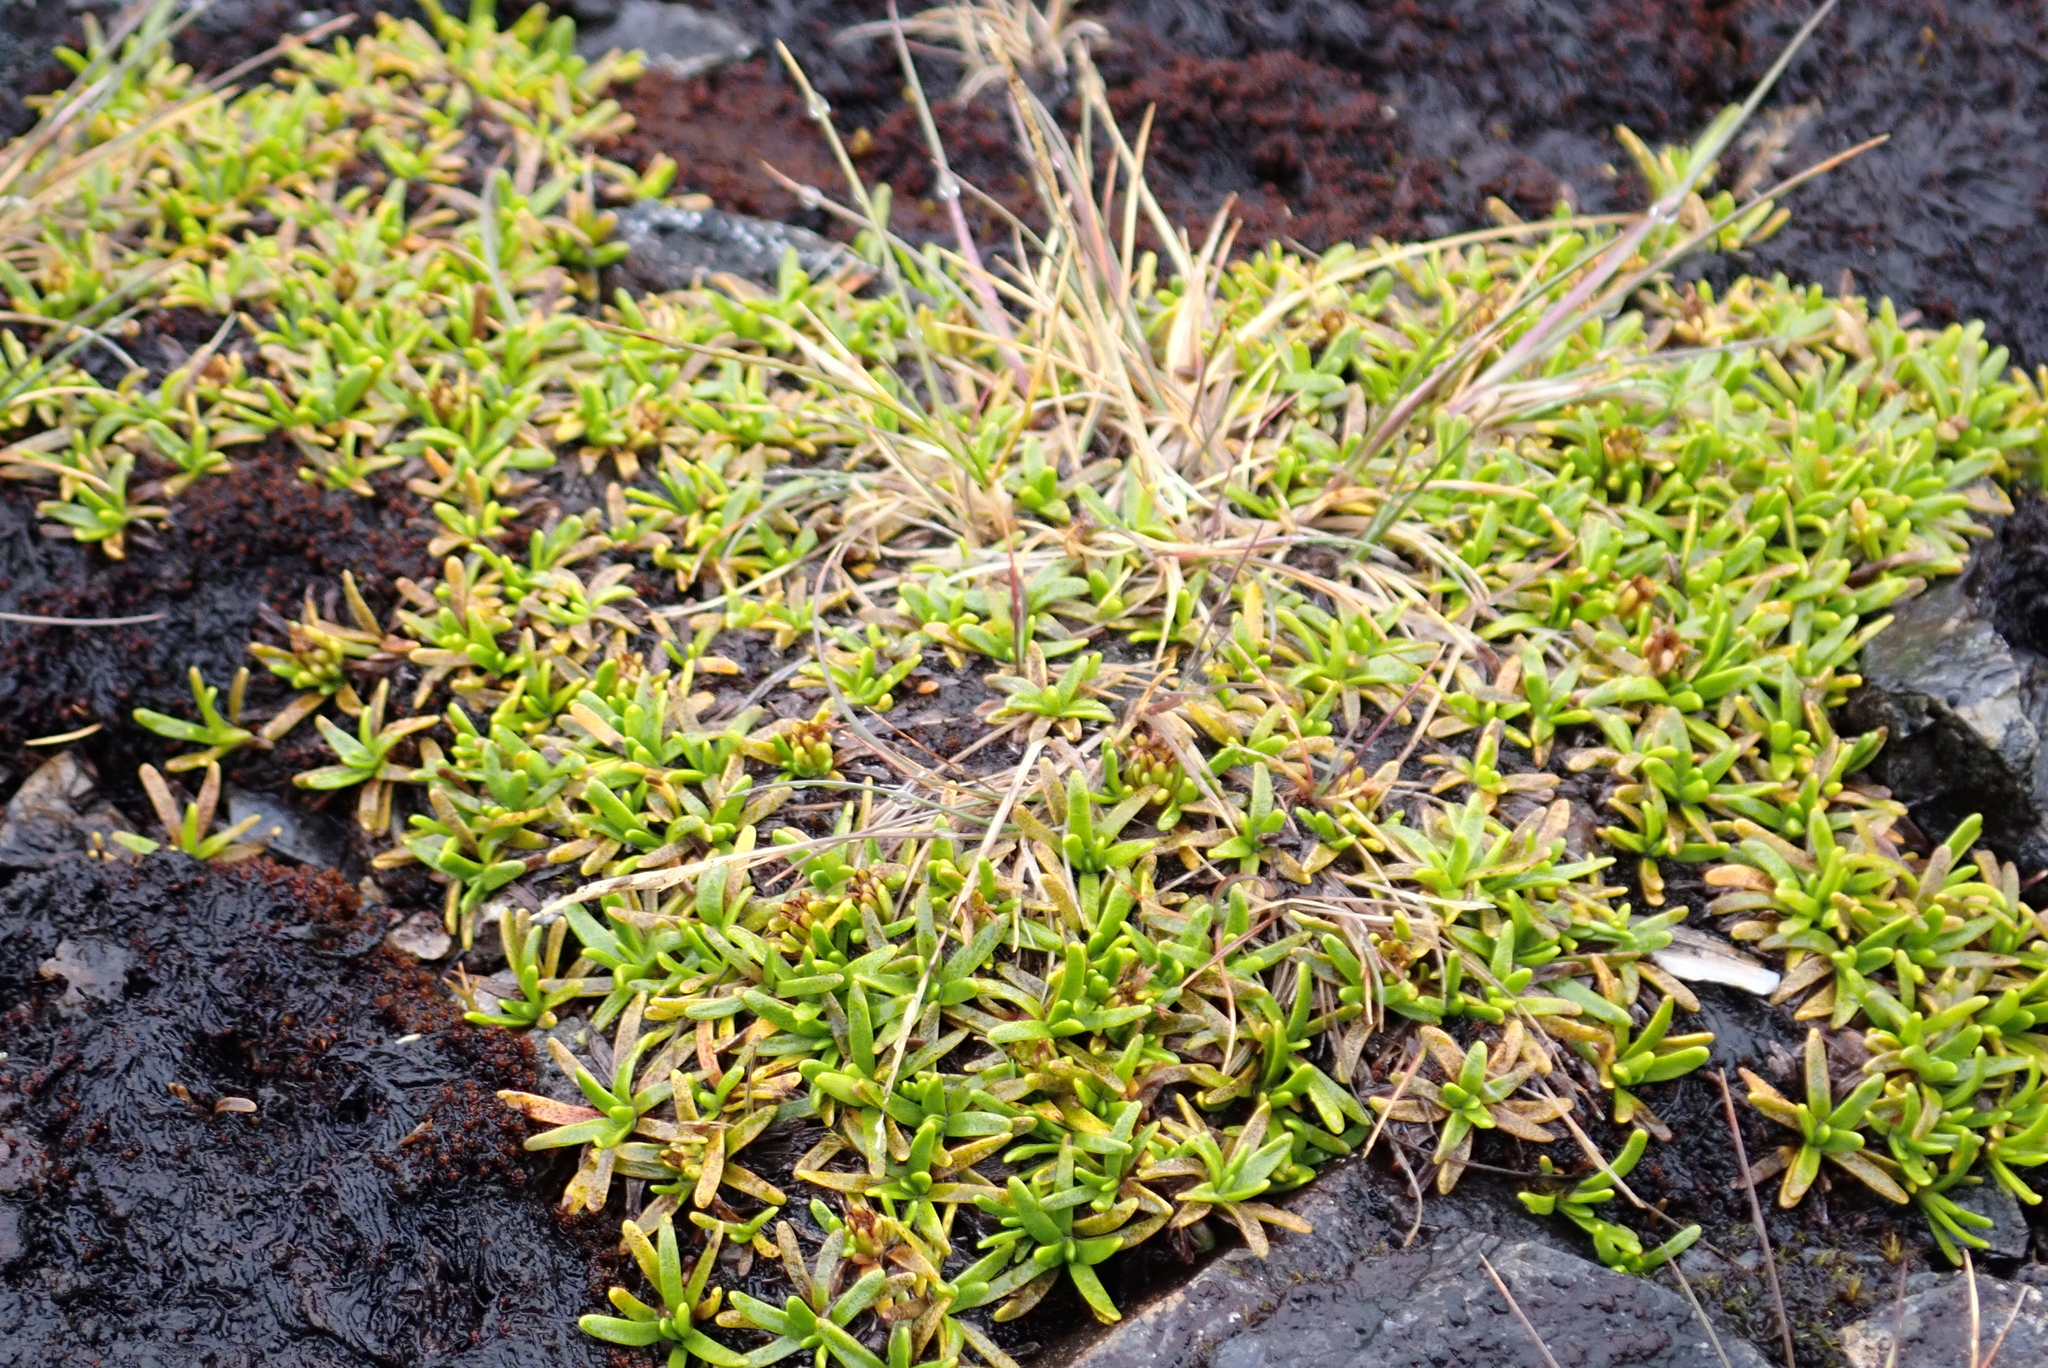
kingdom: Plantae
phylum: Tracheophyta
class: Magnoliopsida
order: Asterales
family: Asteraceae
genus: Abrotanella
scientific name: Abrotanella caespitosa
